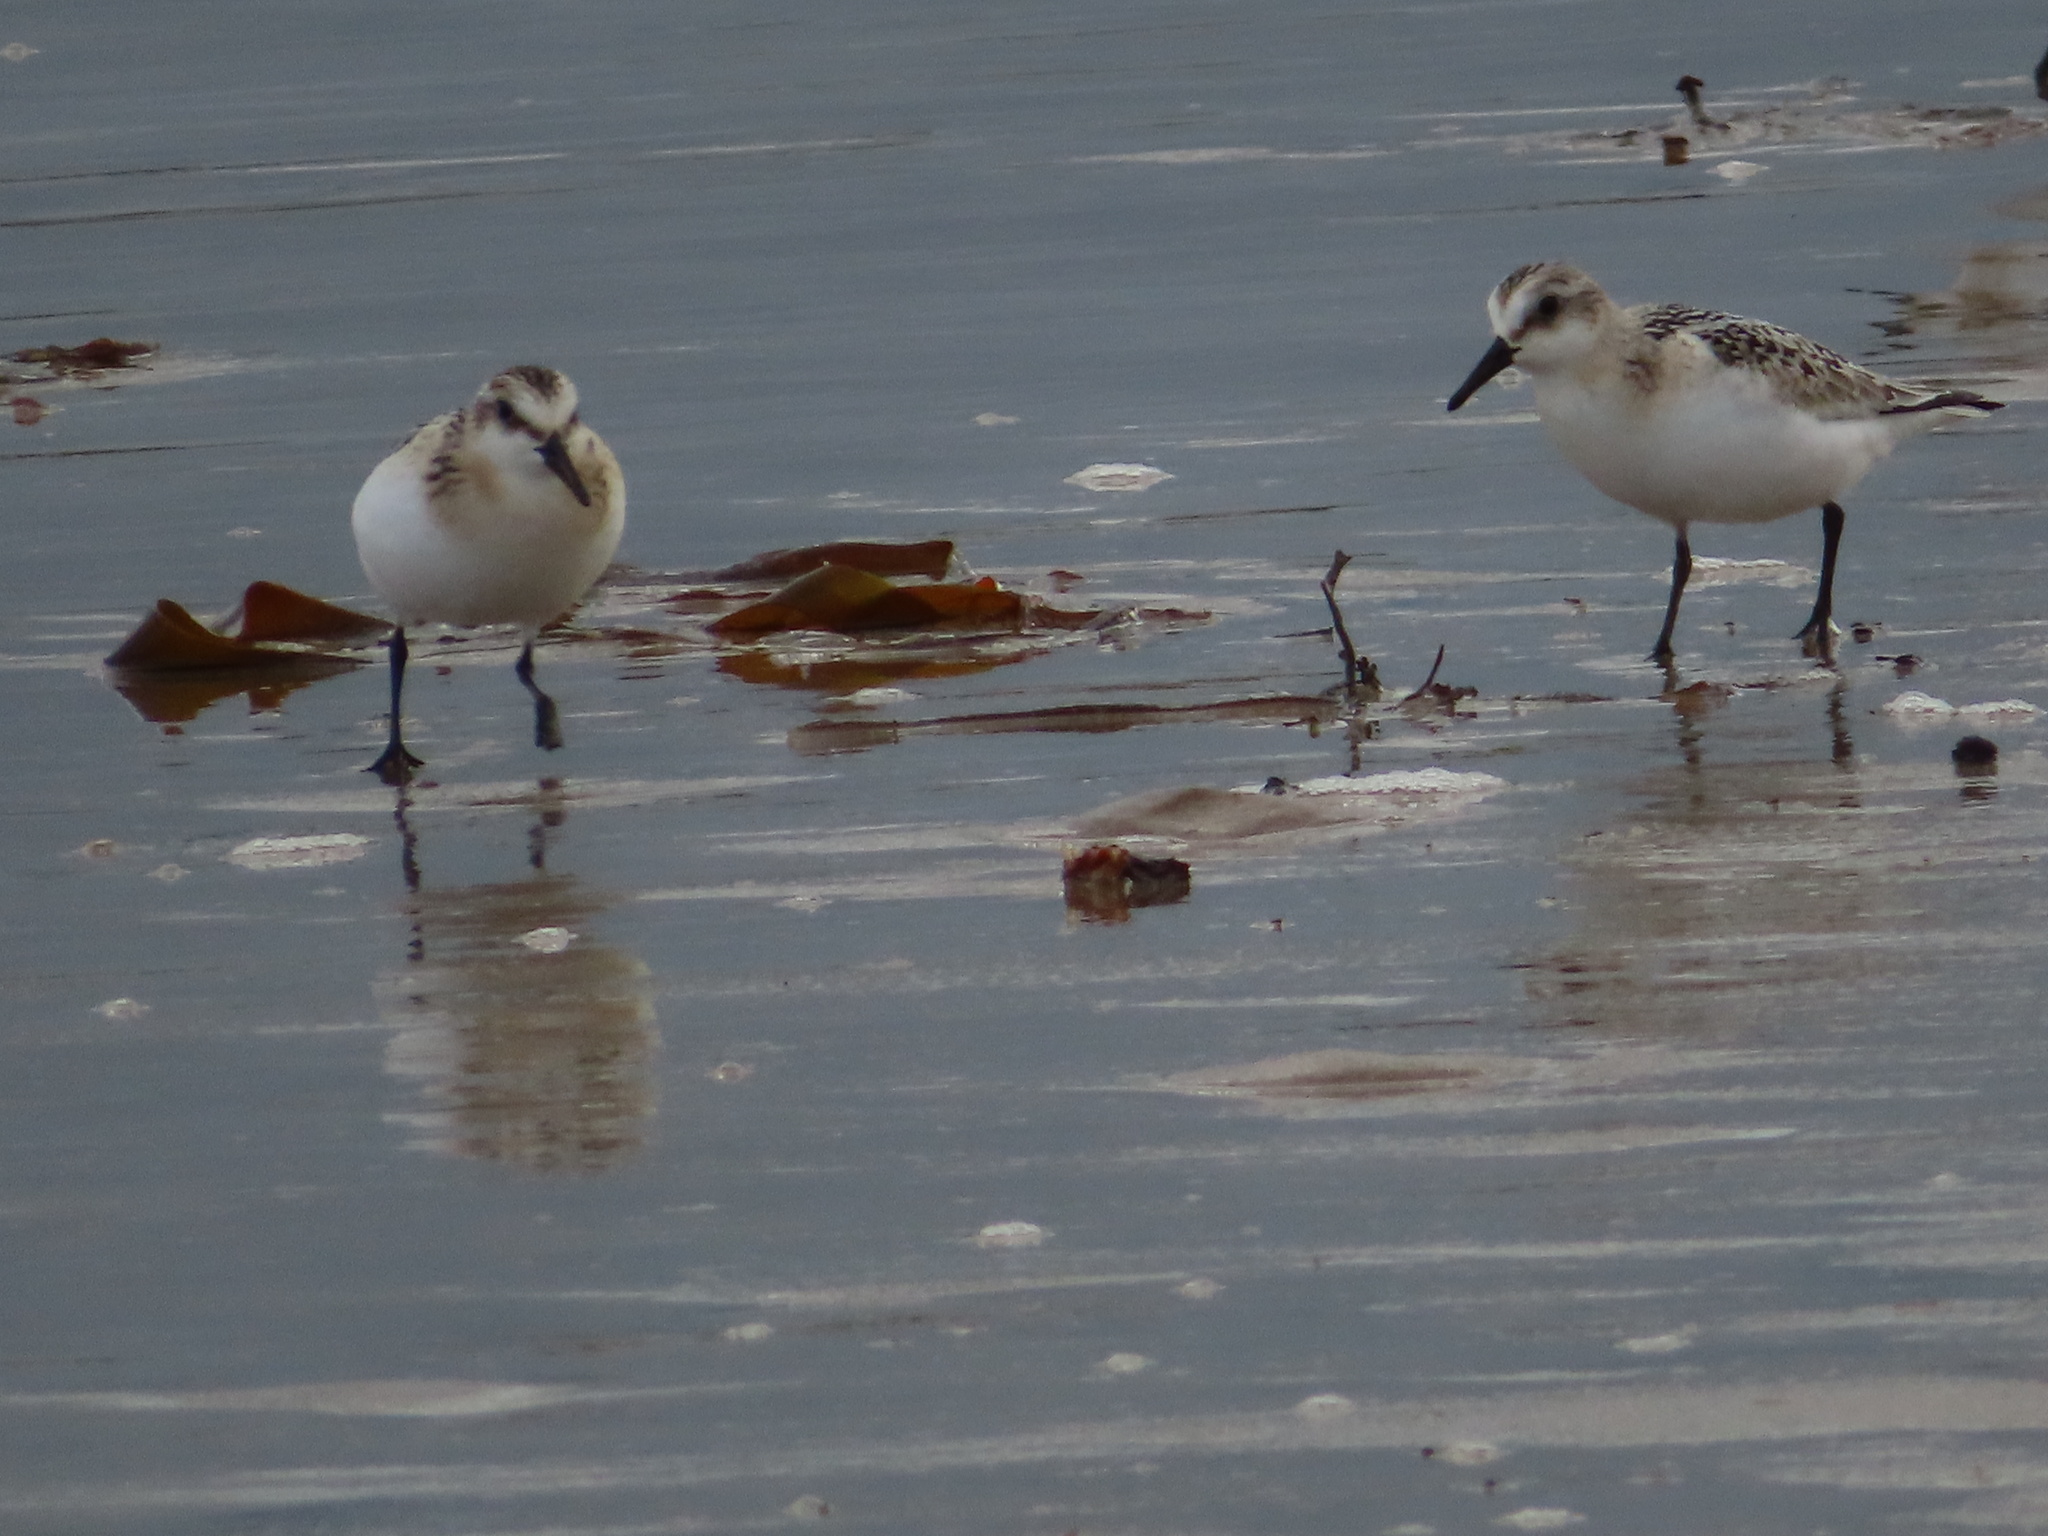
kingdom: Animalia
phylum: Chordata
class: Aves
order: Charadriiformes
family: Scolopacidae
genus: Calidris
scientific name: Calidris alba
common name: Sanderling
